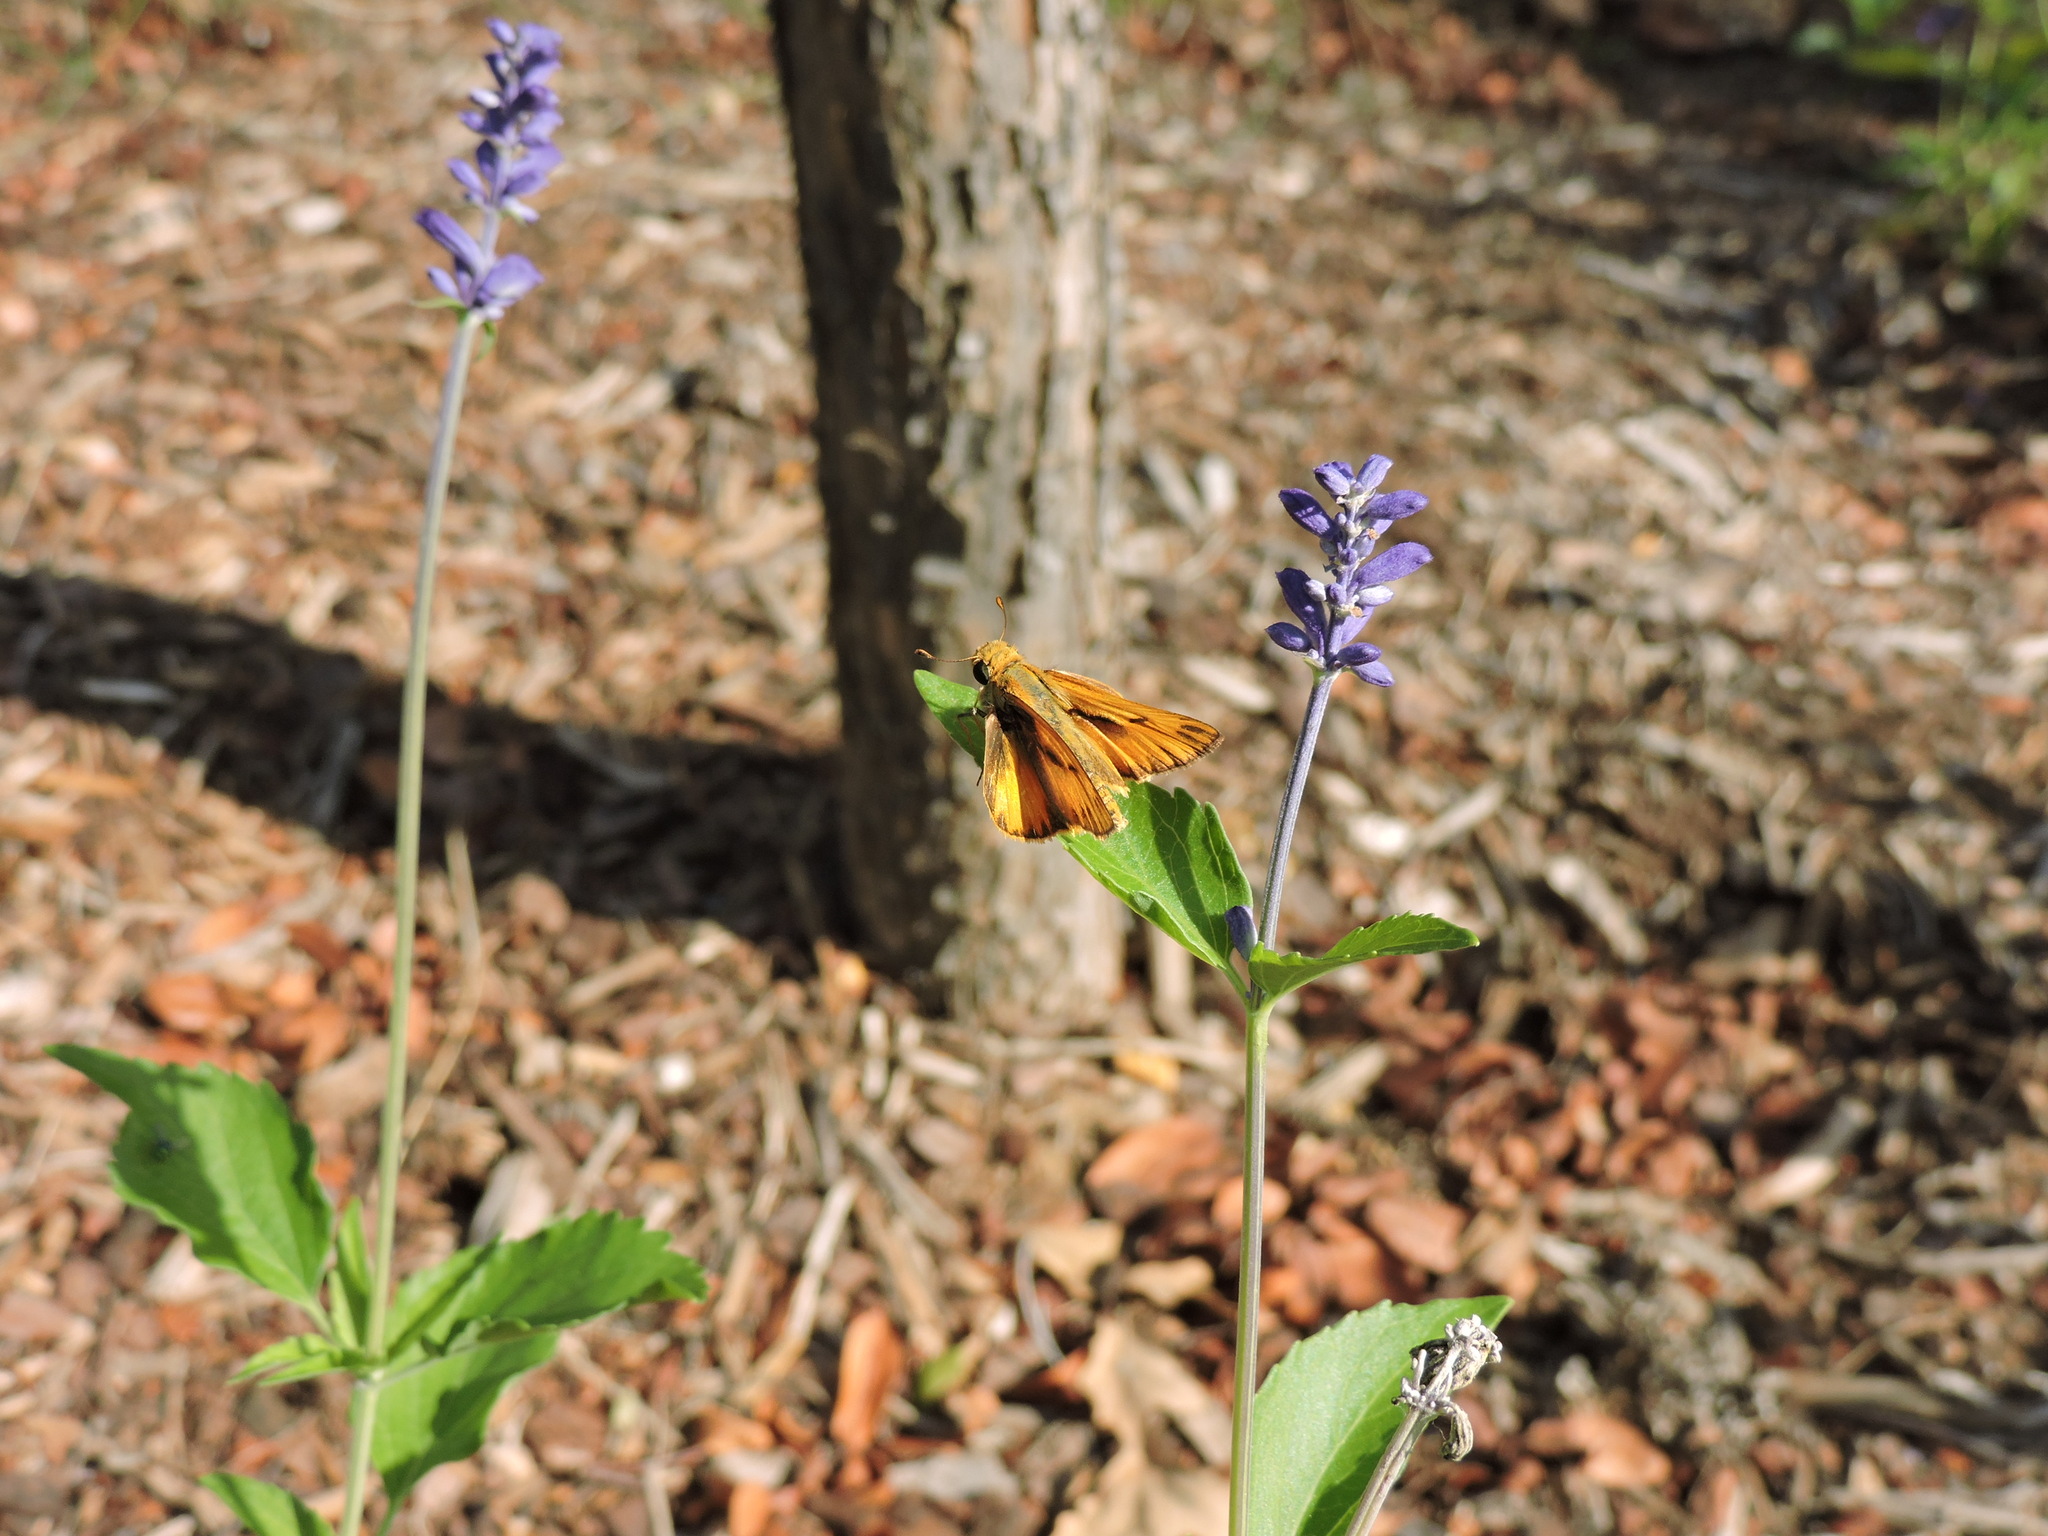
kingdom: Animalia
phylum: Arthropoda
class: Insecta
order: Lepidoptera
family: Hesperiidae
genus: Hylephila
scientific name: Hylephila phyleus
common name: Fiery skipper
